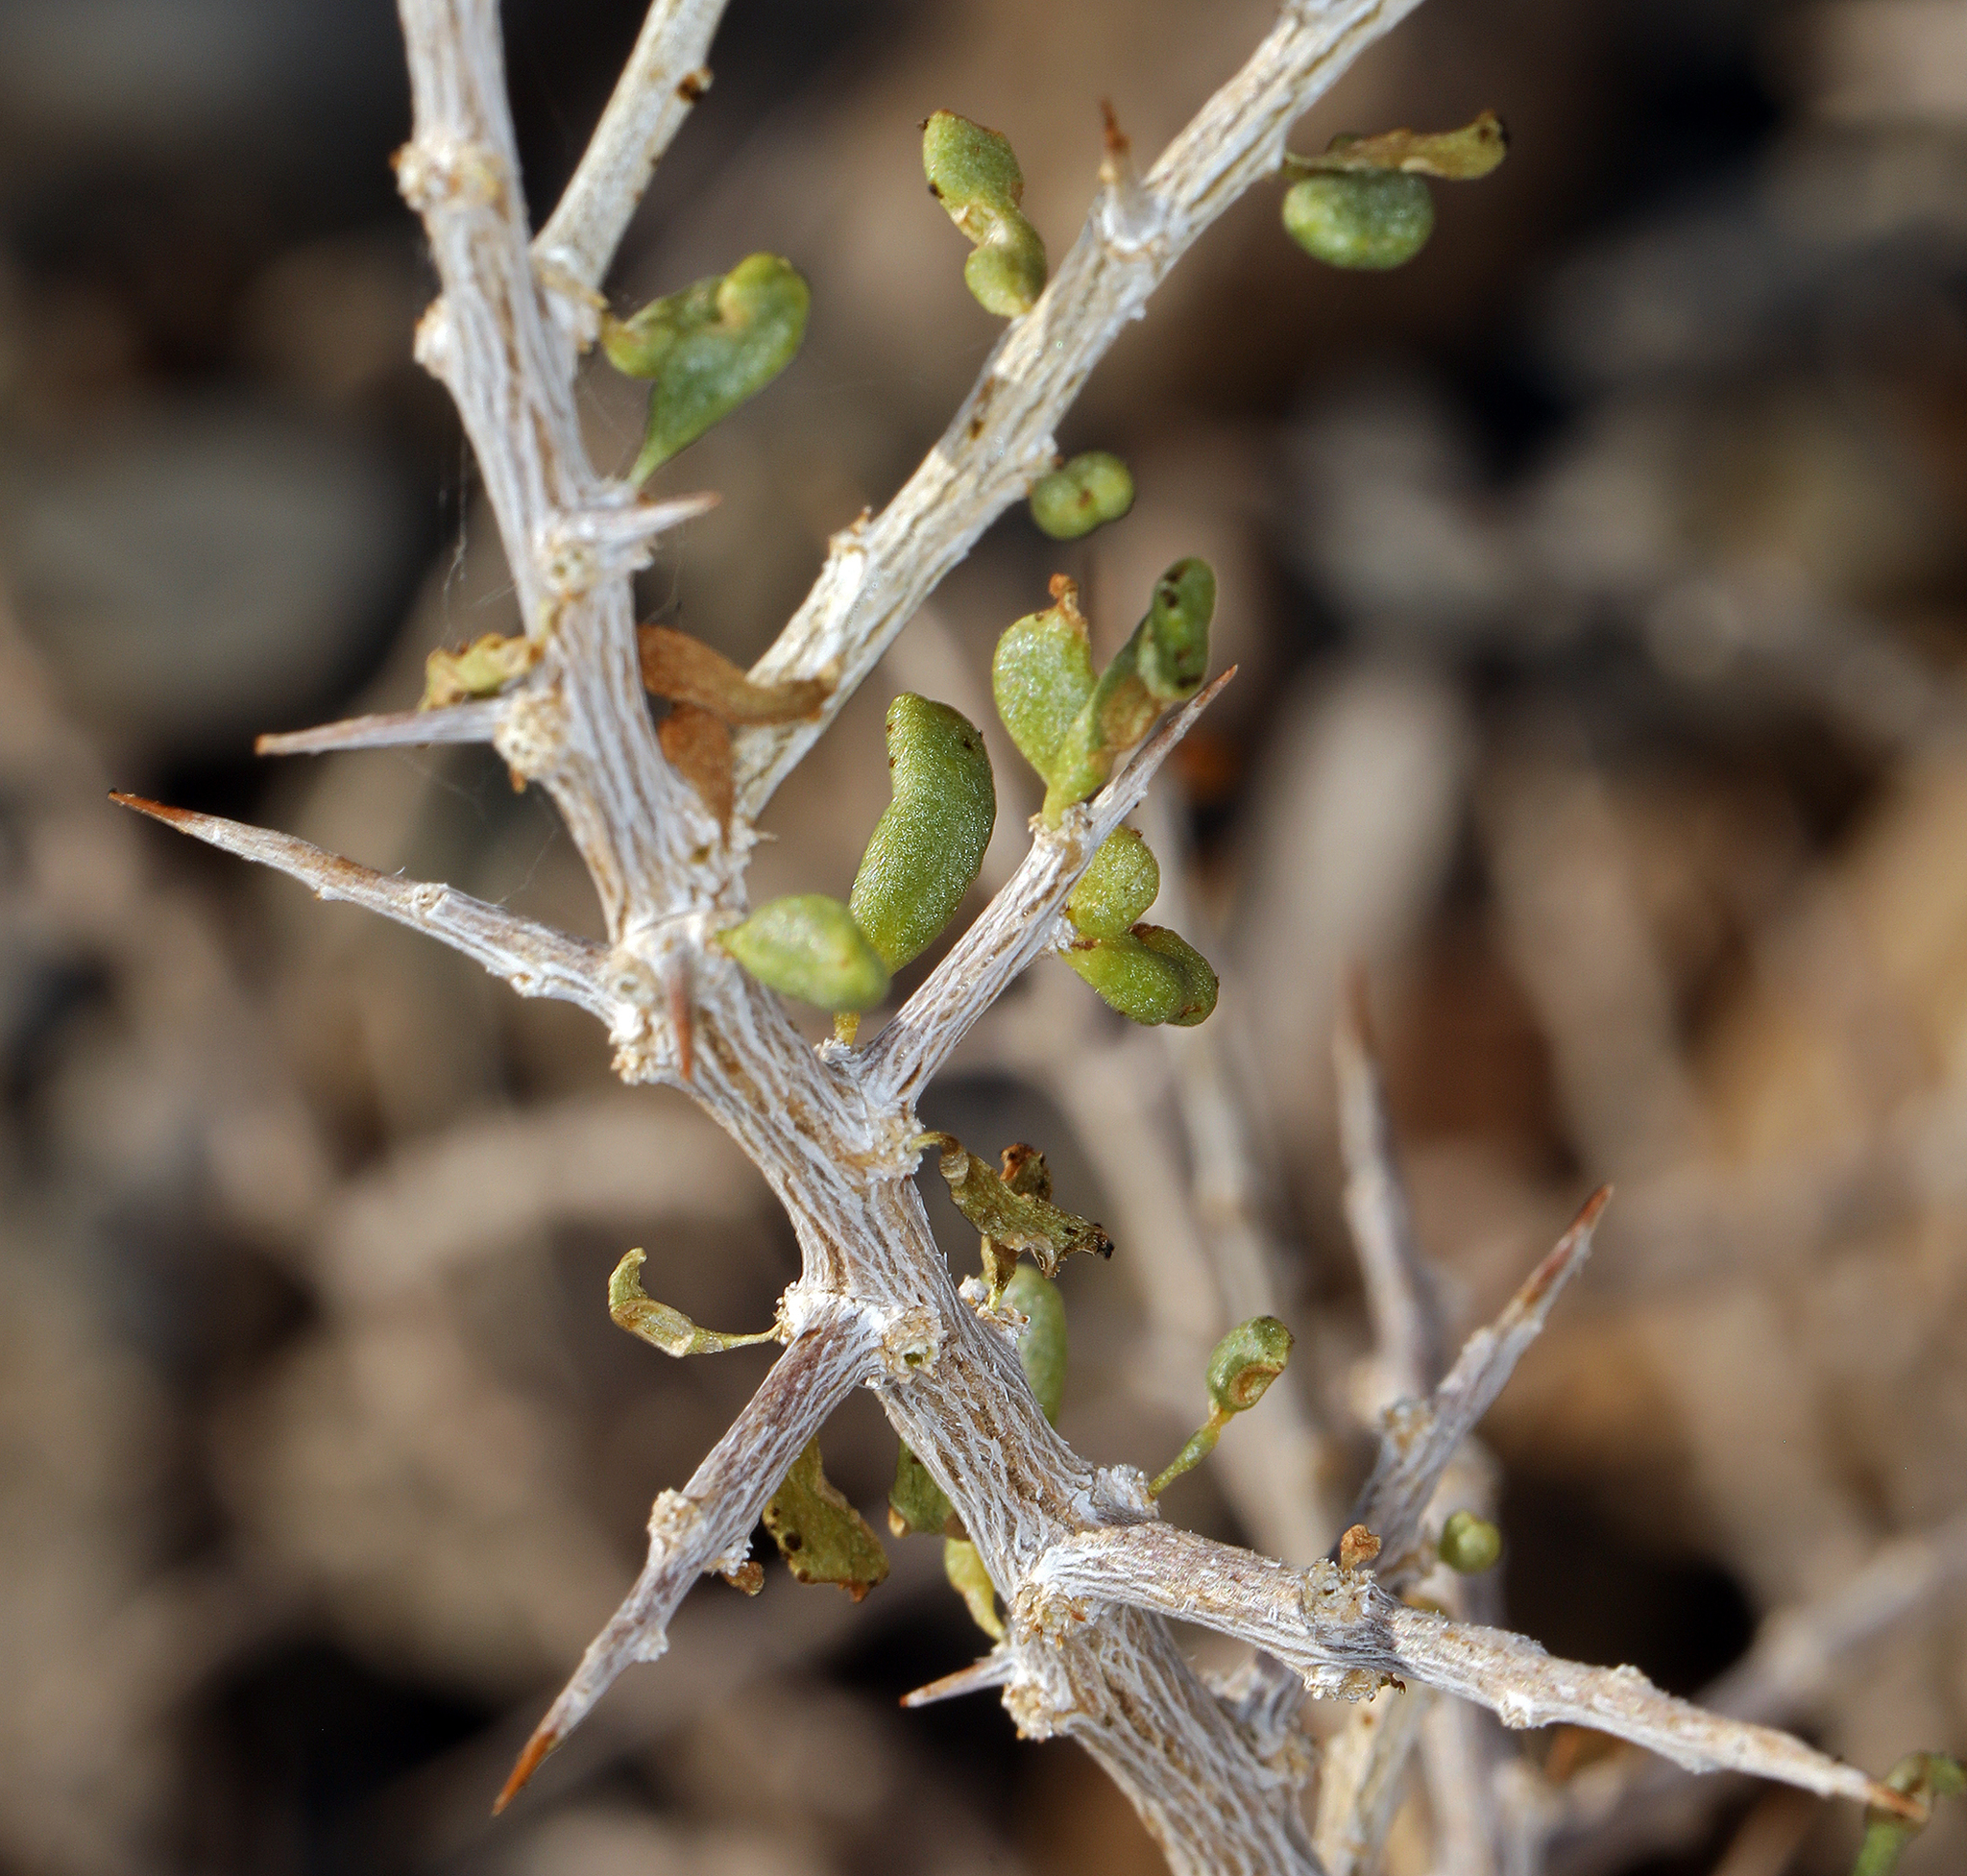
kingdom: Plantae
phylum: Tracheophyta
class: Magnoliopsida
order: Solanales
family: Solanaceae
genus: Lycium
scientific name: Lycium andersonii
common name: Water-jacket
